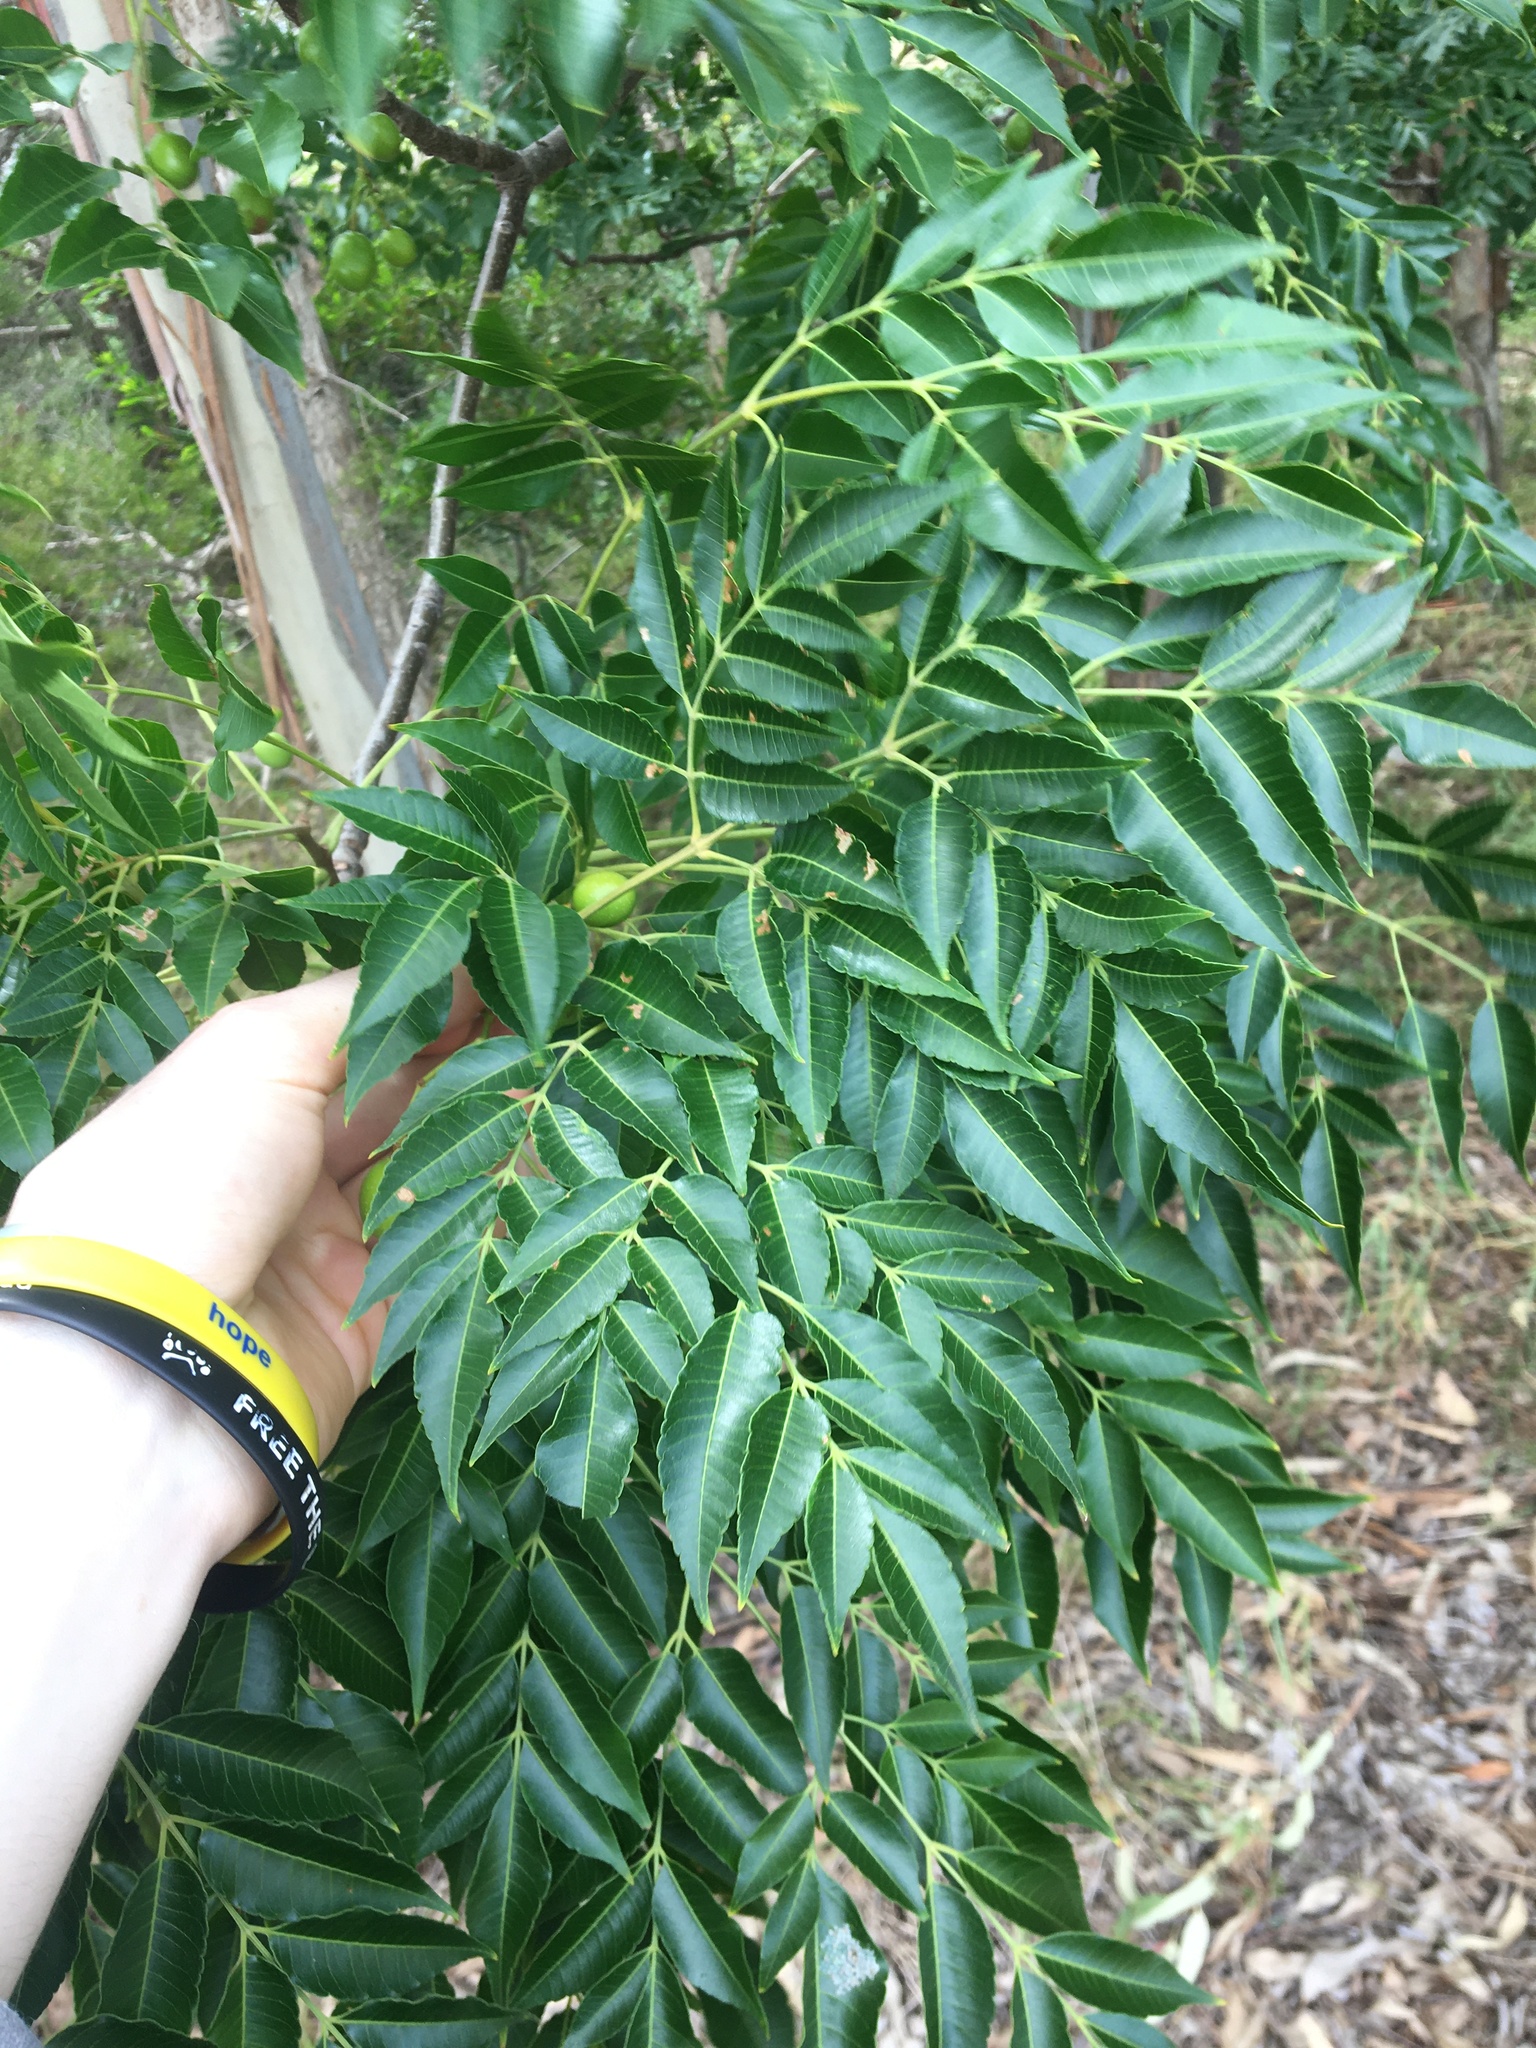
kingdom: Plantae
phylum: Tracheophyta
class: Magnoliopsida
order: Sapindales
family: Meliaceae
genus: Melia
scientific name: Melia azedarach
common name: Chinaberrytree
